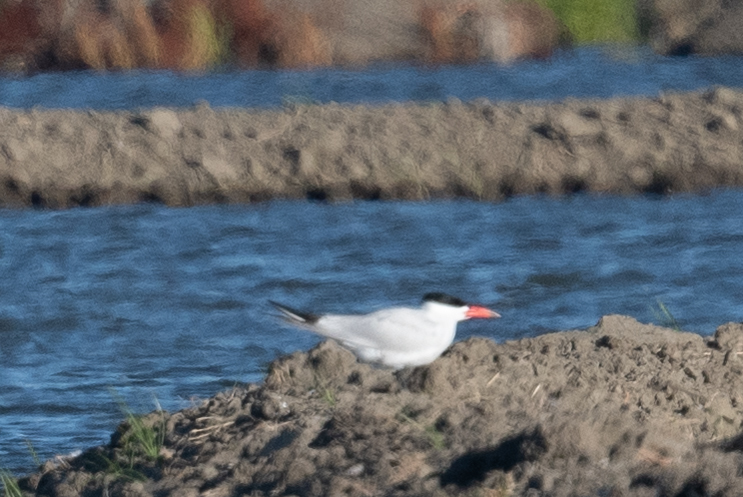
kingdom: Animalia
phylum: Chordata
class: Aves
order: Charadriiformes
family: Laridae
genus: Hydroprogne
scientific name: Hydroprogne caspia
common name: Caspian tern
